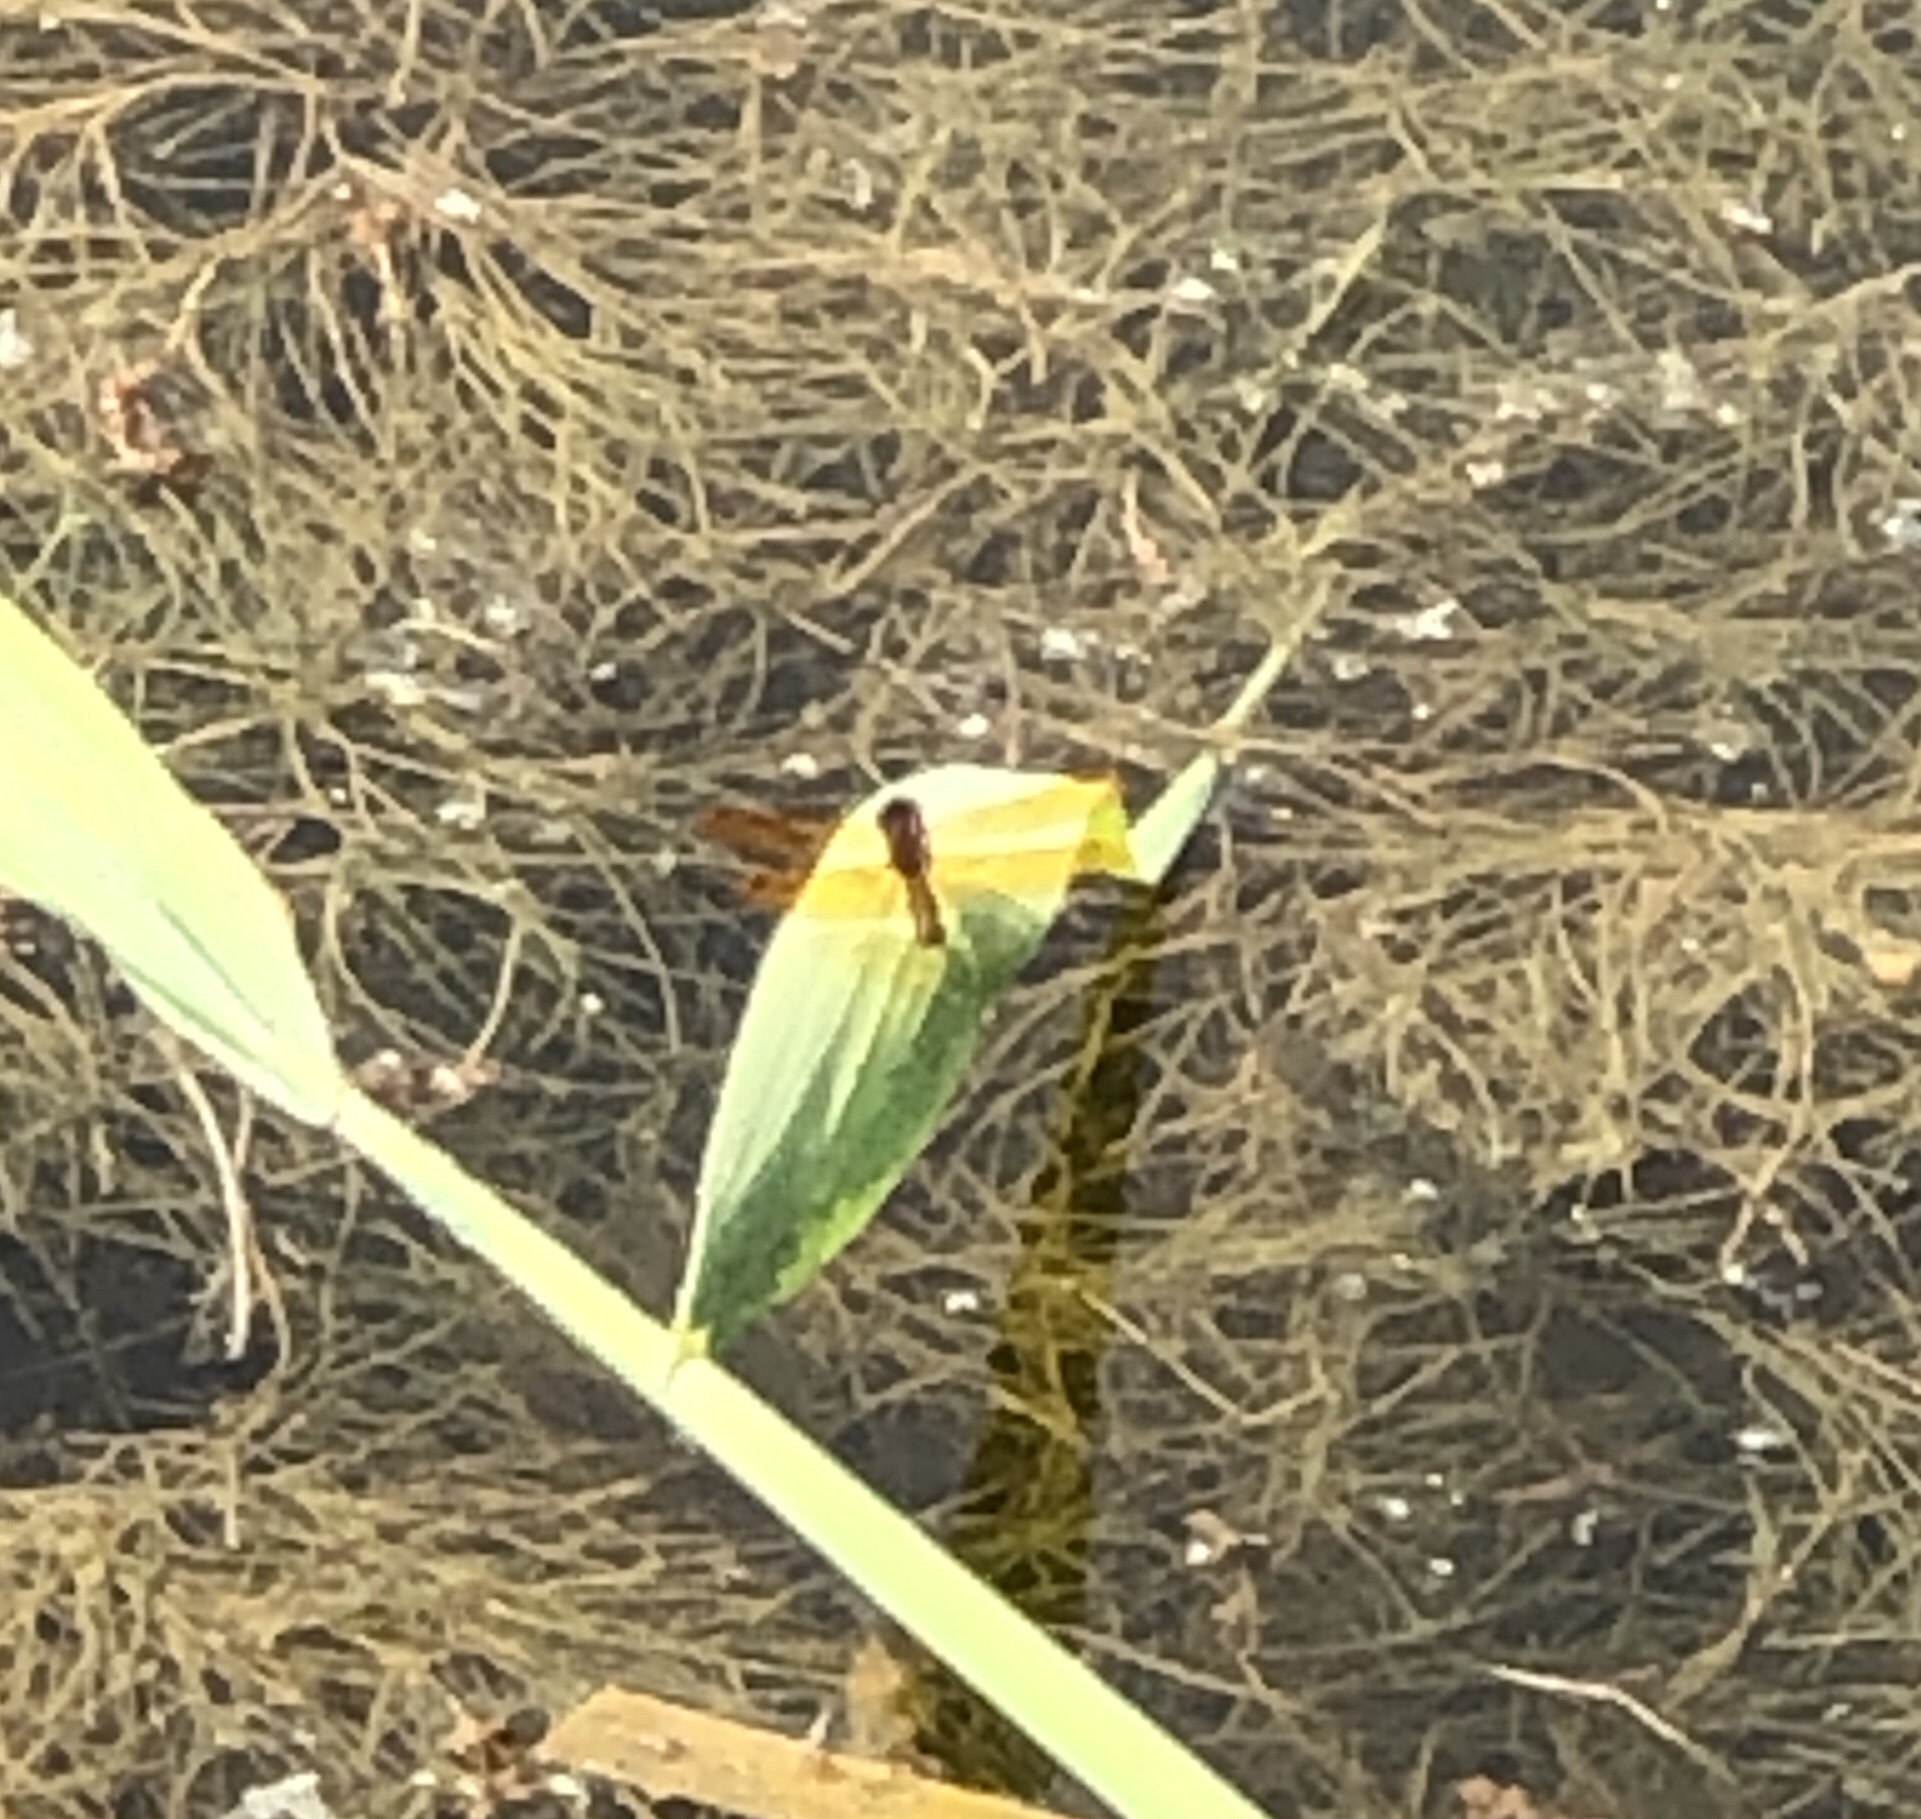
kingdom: Animalia
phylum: Arthropoda
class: Insecta
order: Odonata
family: Libellulidae
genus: Perithemis
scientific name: Perithemis tenera
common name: Eastern amberwing
